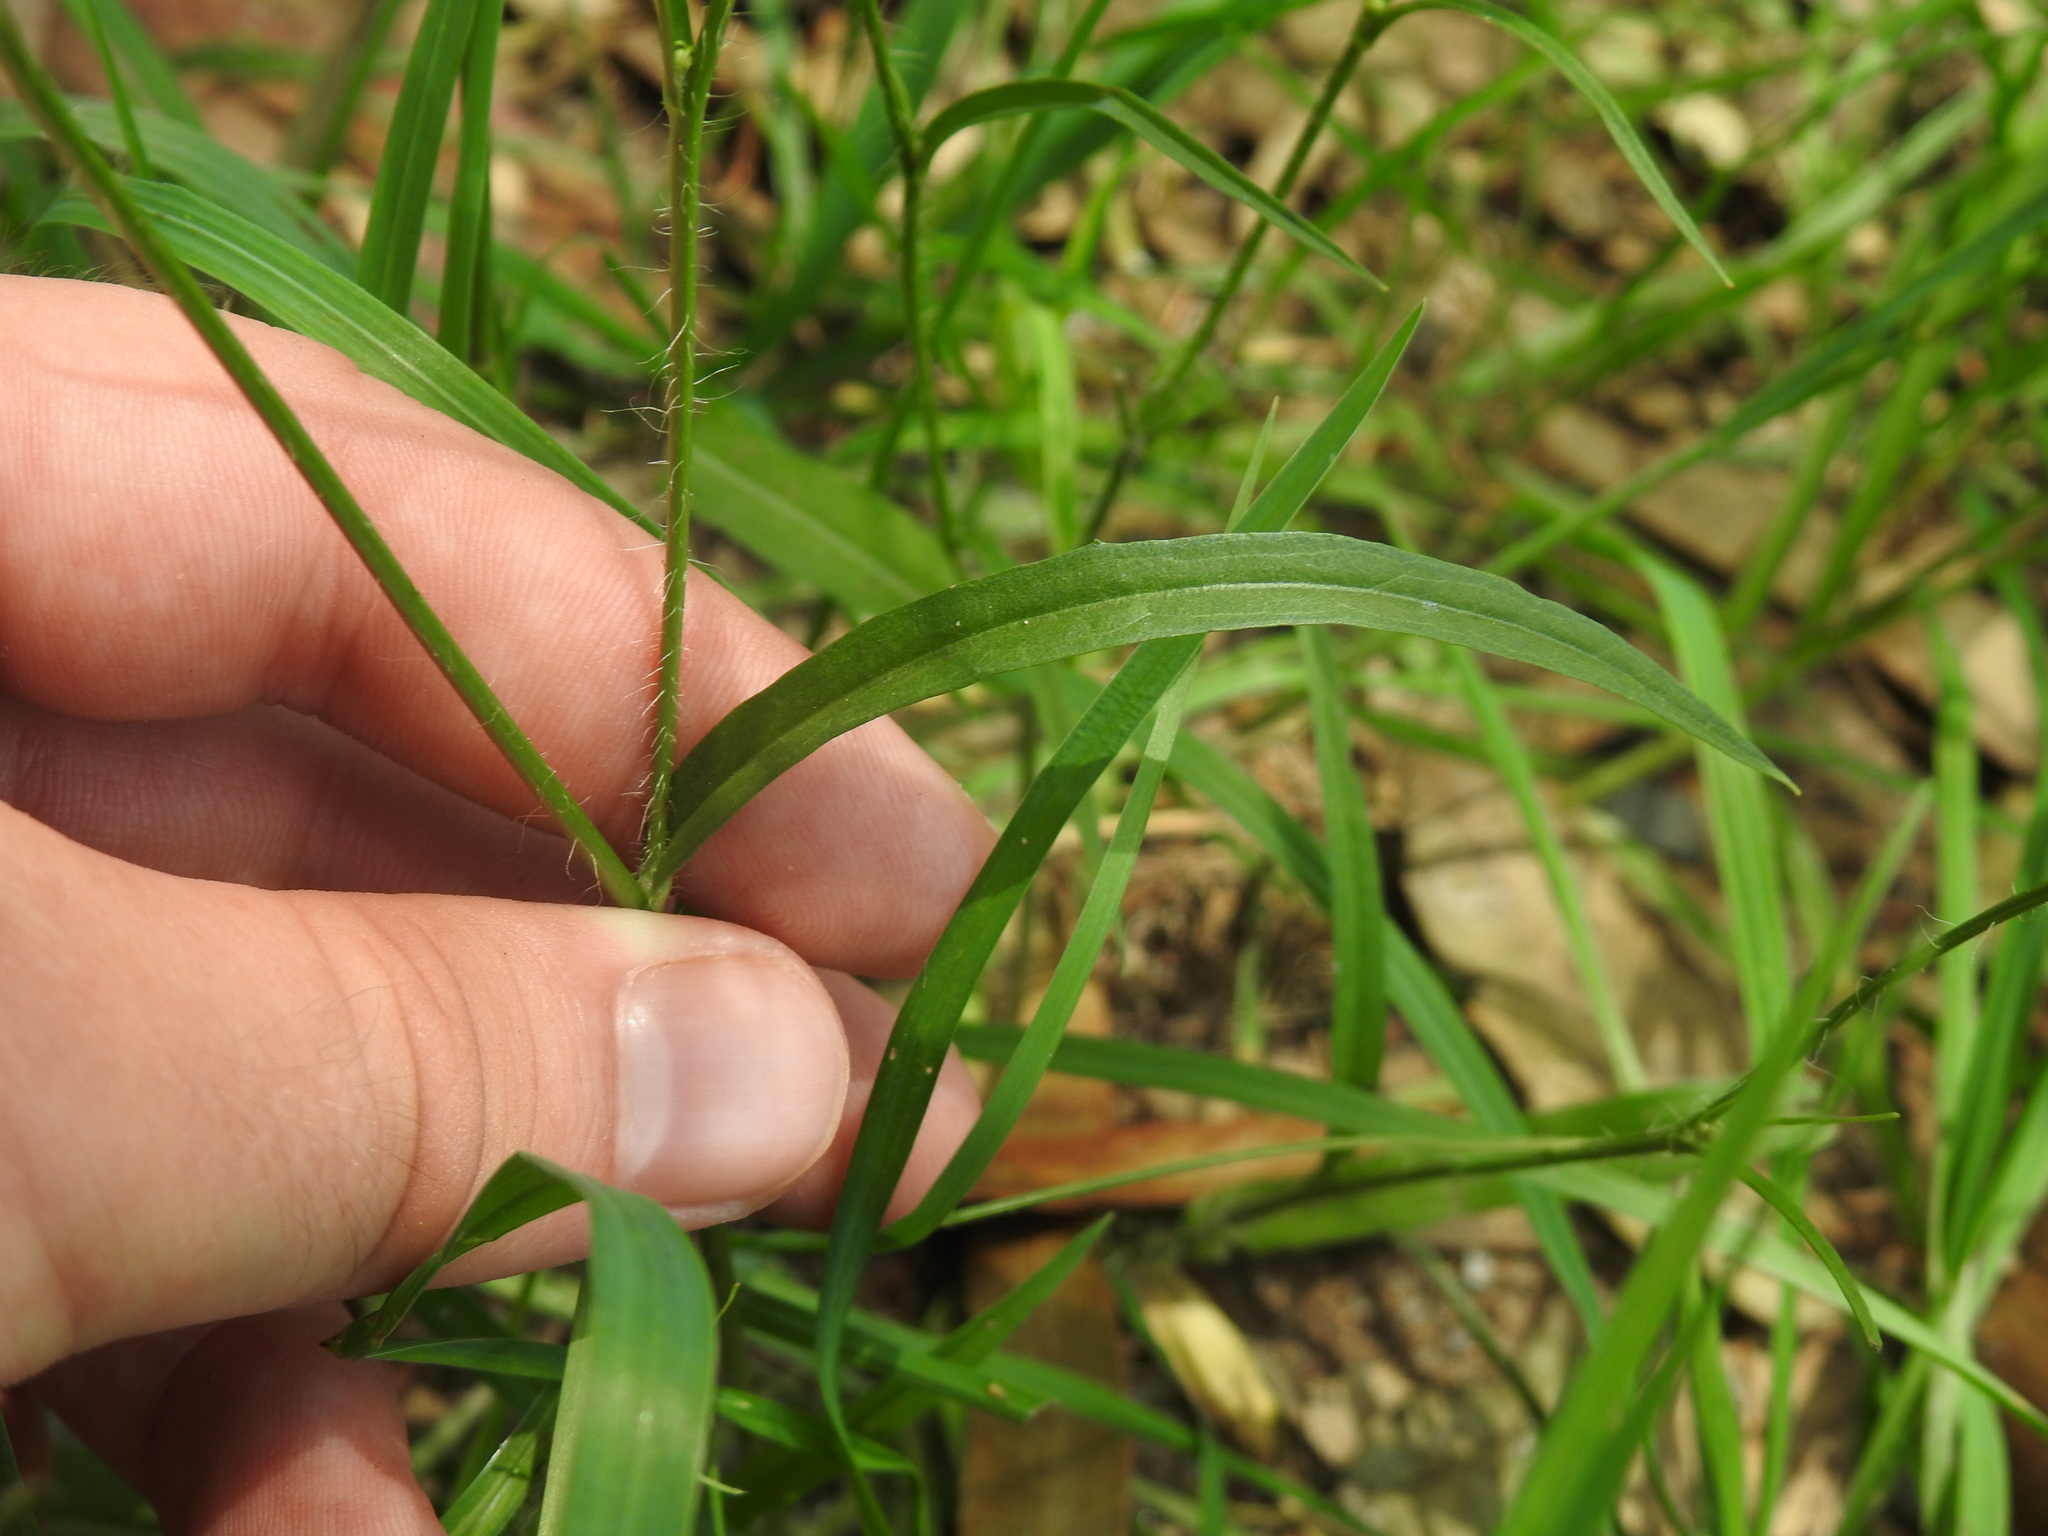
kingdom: Plantae
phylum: Tracheophyta
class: Magnoliopsida
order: Asterales
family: Asteraceae
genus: Hypochaeris
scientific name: Hypochaeris albiflora
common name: White flatweed
